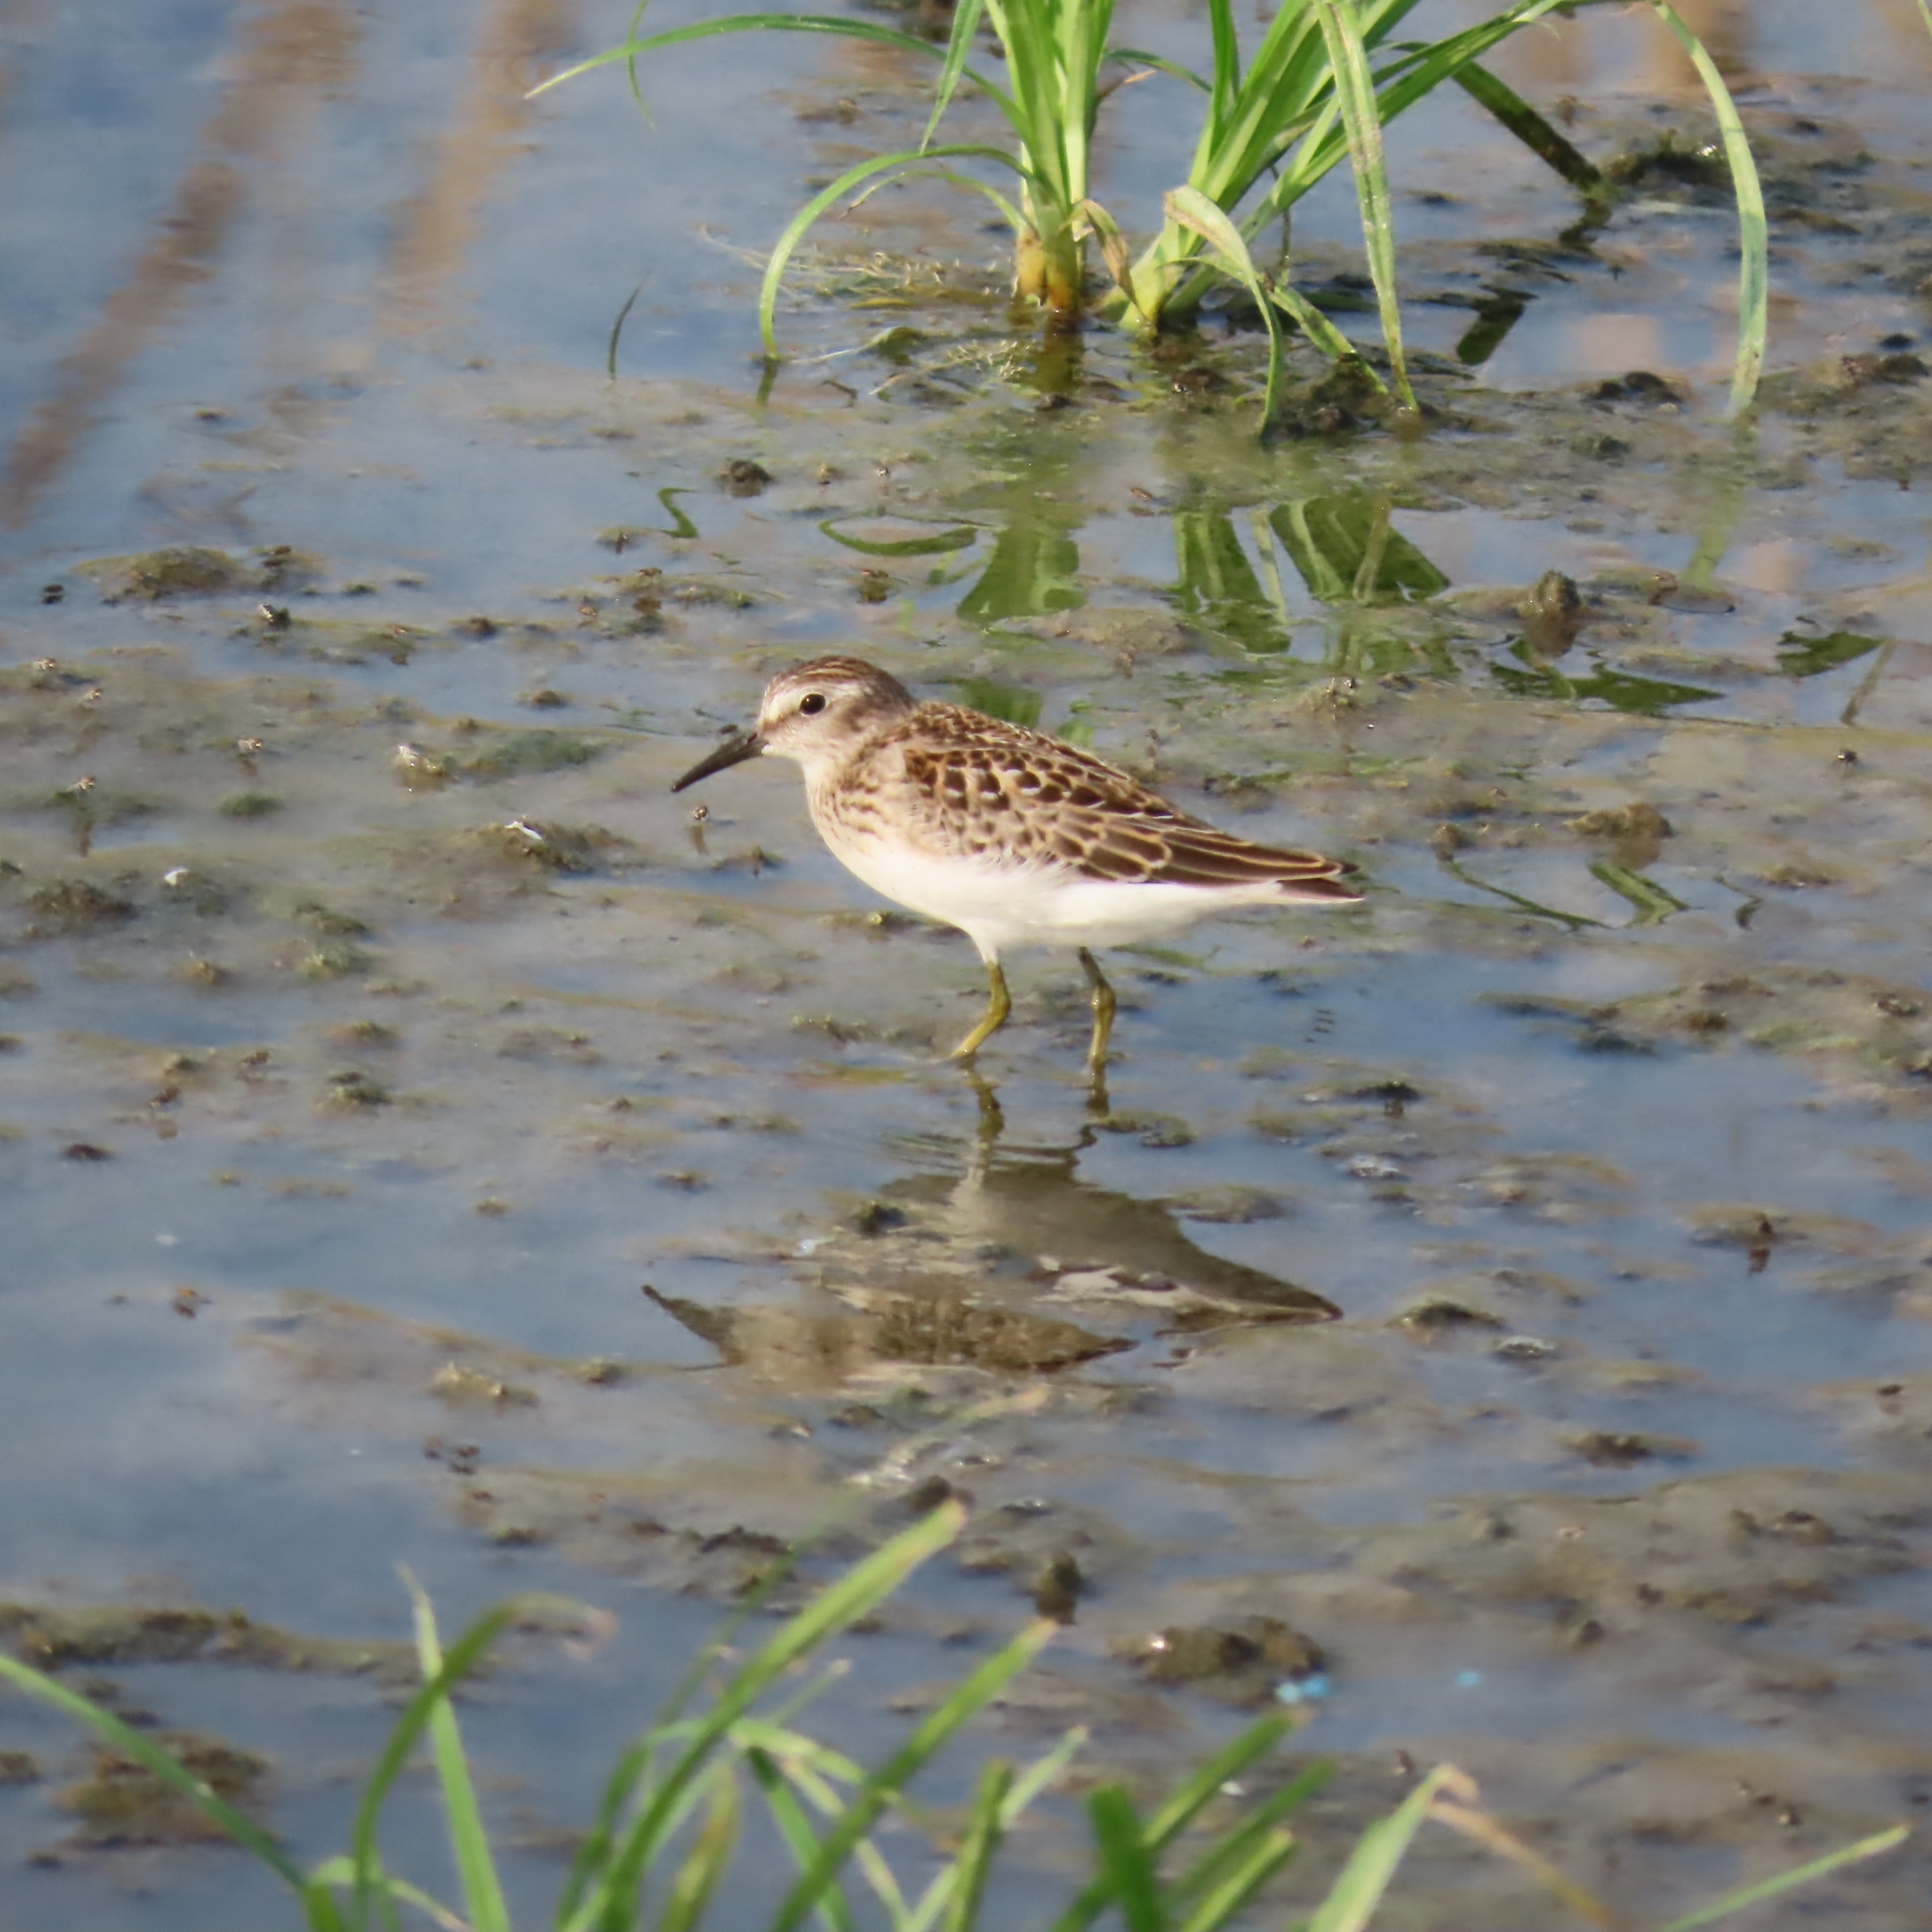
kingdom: Animalia
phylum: Chordata
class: Aves
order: Charadriiformes
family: Scolopacidae
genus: Calidris
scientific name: Calidris minutilla
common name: Least sandpiper
